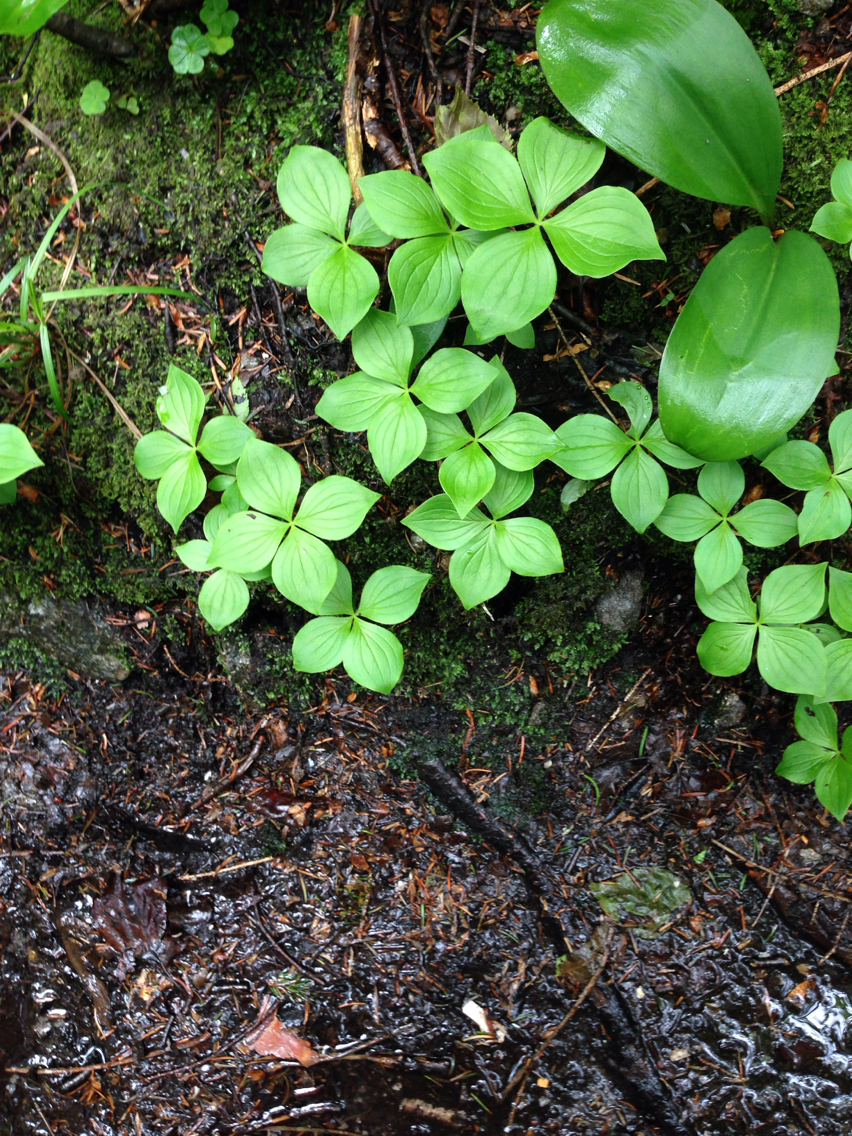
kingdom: Plantae
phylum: Tracheophyta
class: Magnoliopsida
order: Cornales
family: Cornaceae
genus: Cornus
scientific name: Cornus canadensis
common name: Creeping dogwood
